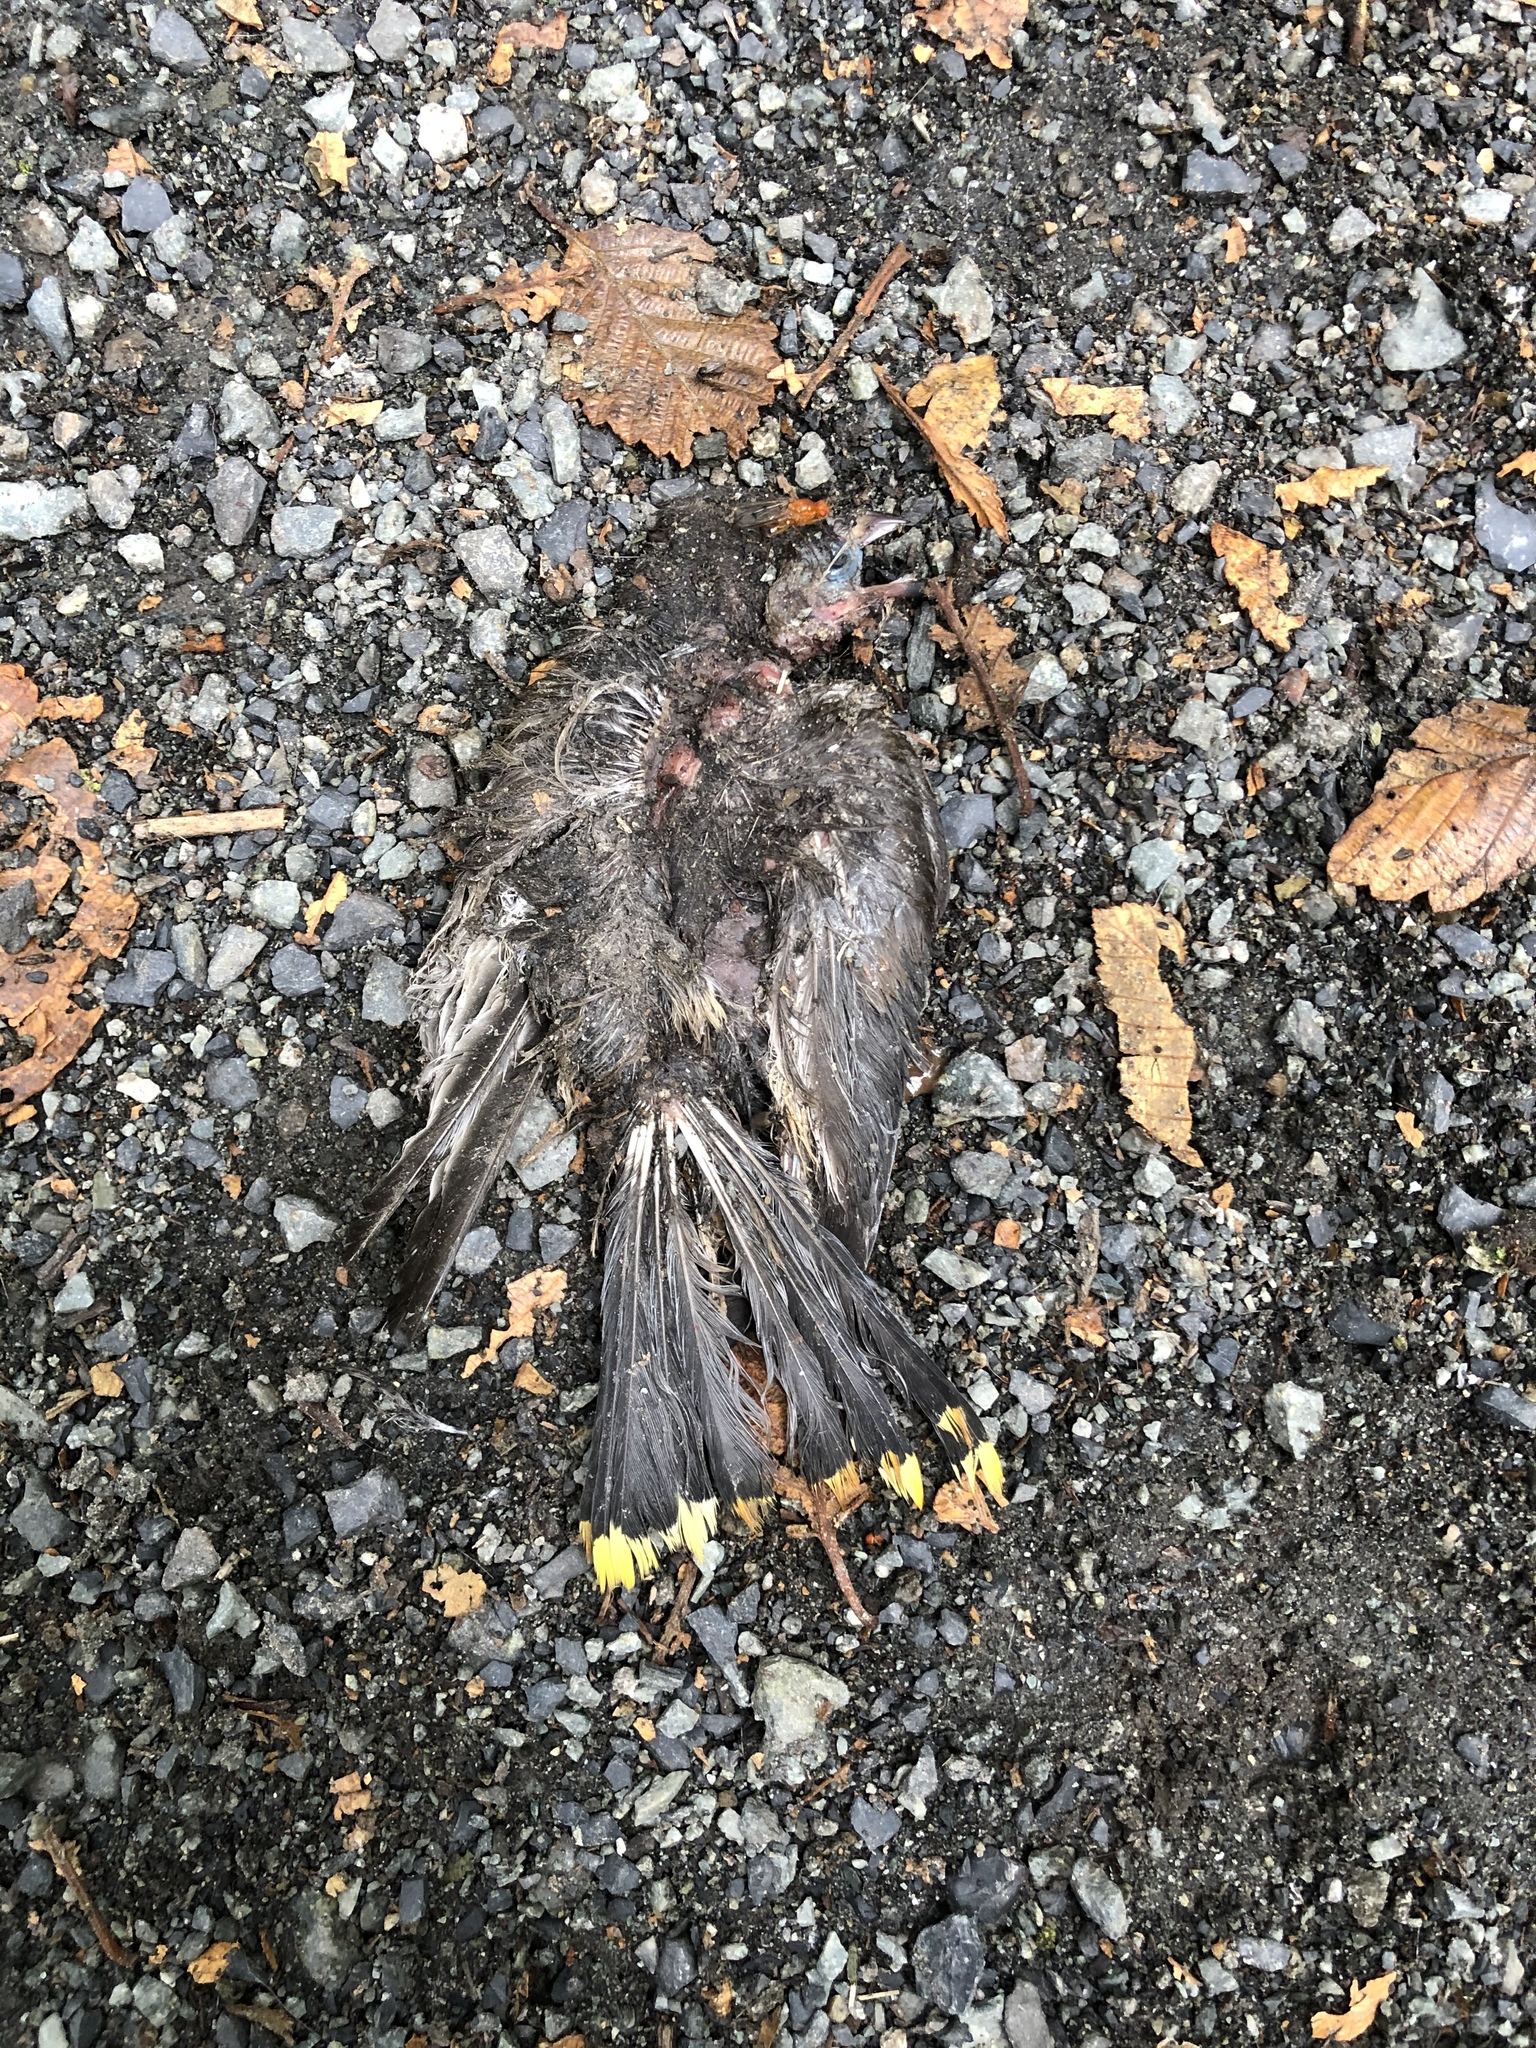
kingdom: Animalia
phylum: Chordata
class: Aves
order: Passeriformes
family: Bombycillidae
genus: Bombycilla
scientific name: Bombycilla cedrorum
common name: Cedar waxwing
